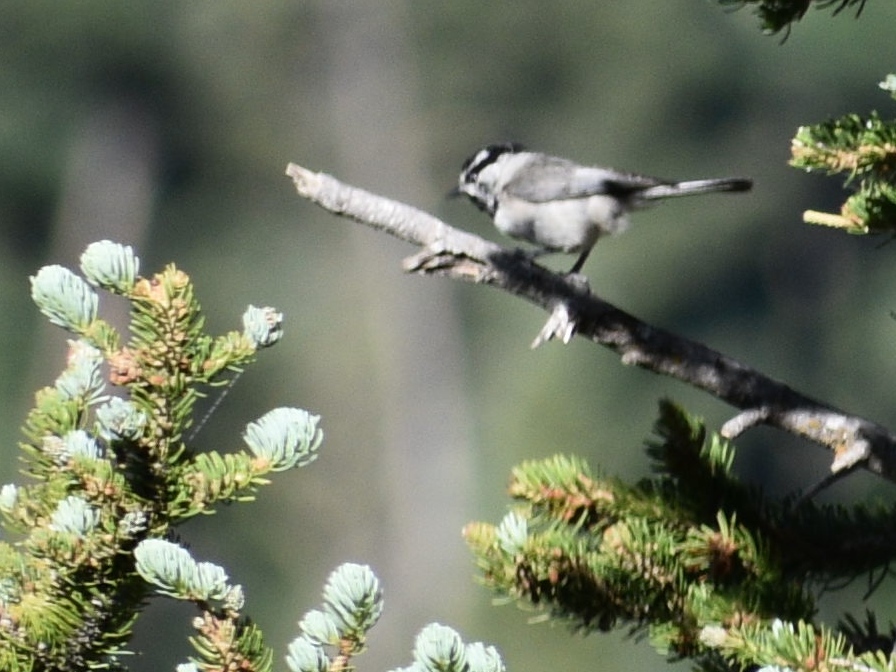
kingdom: Animalia
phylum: Chordata
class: Aves
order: Passeriformes
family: Paridae
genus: Poecile
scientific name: Poecile gambeli
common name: Mountain chickadee
